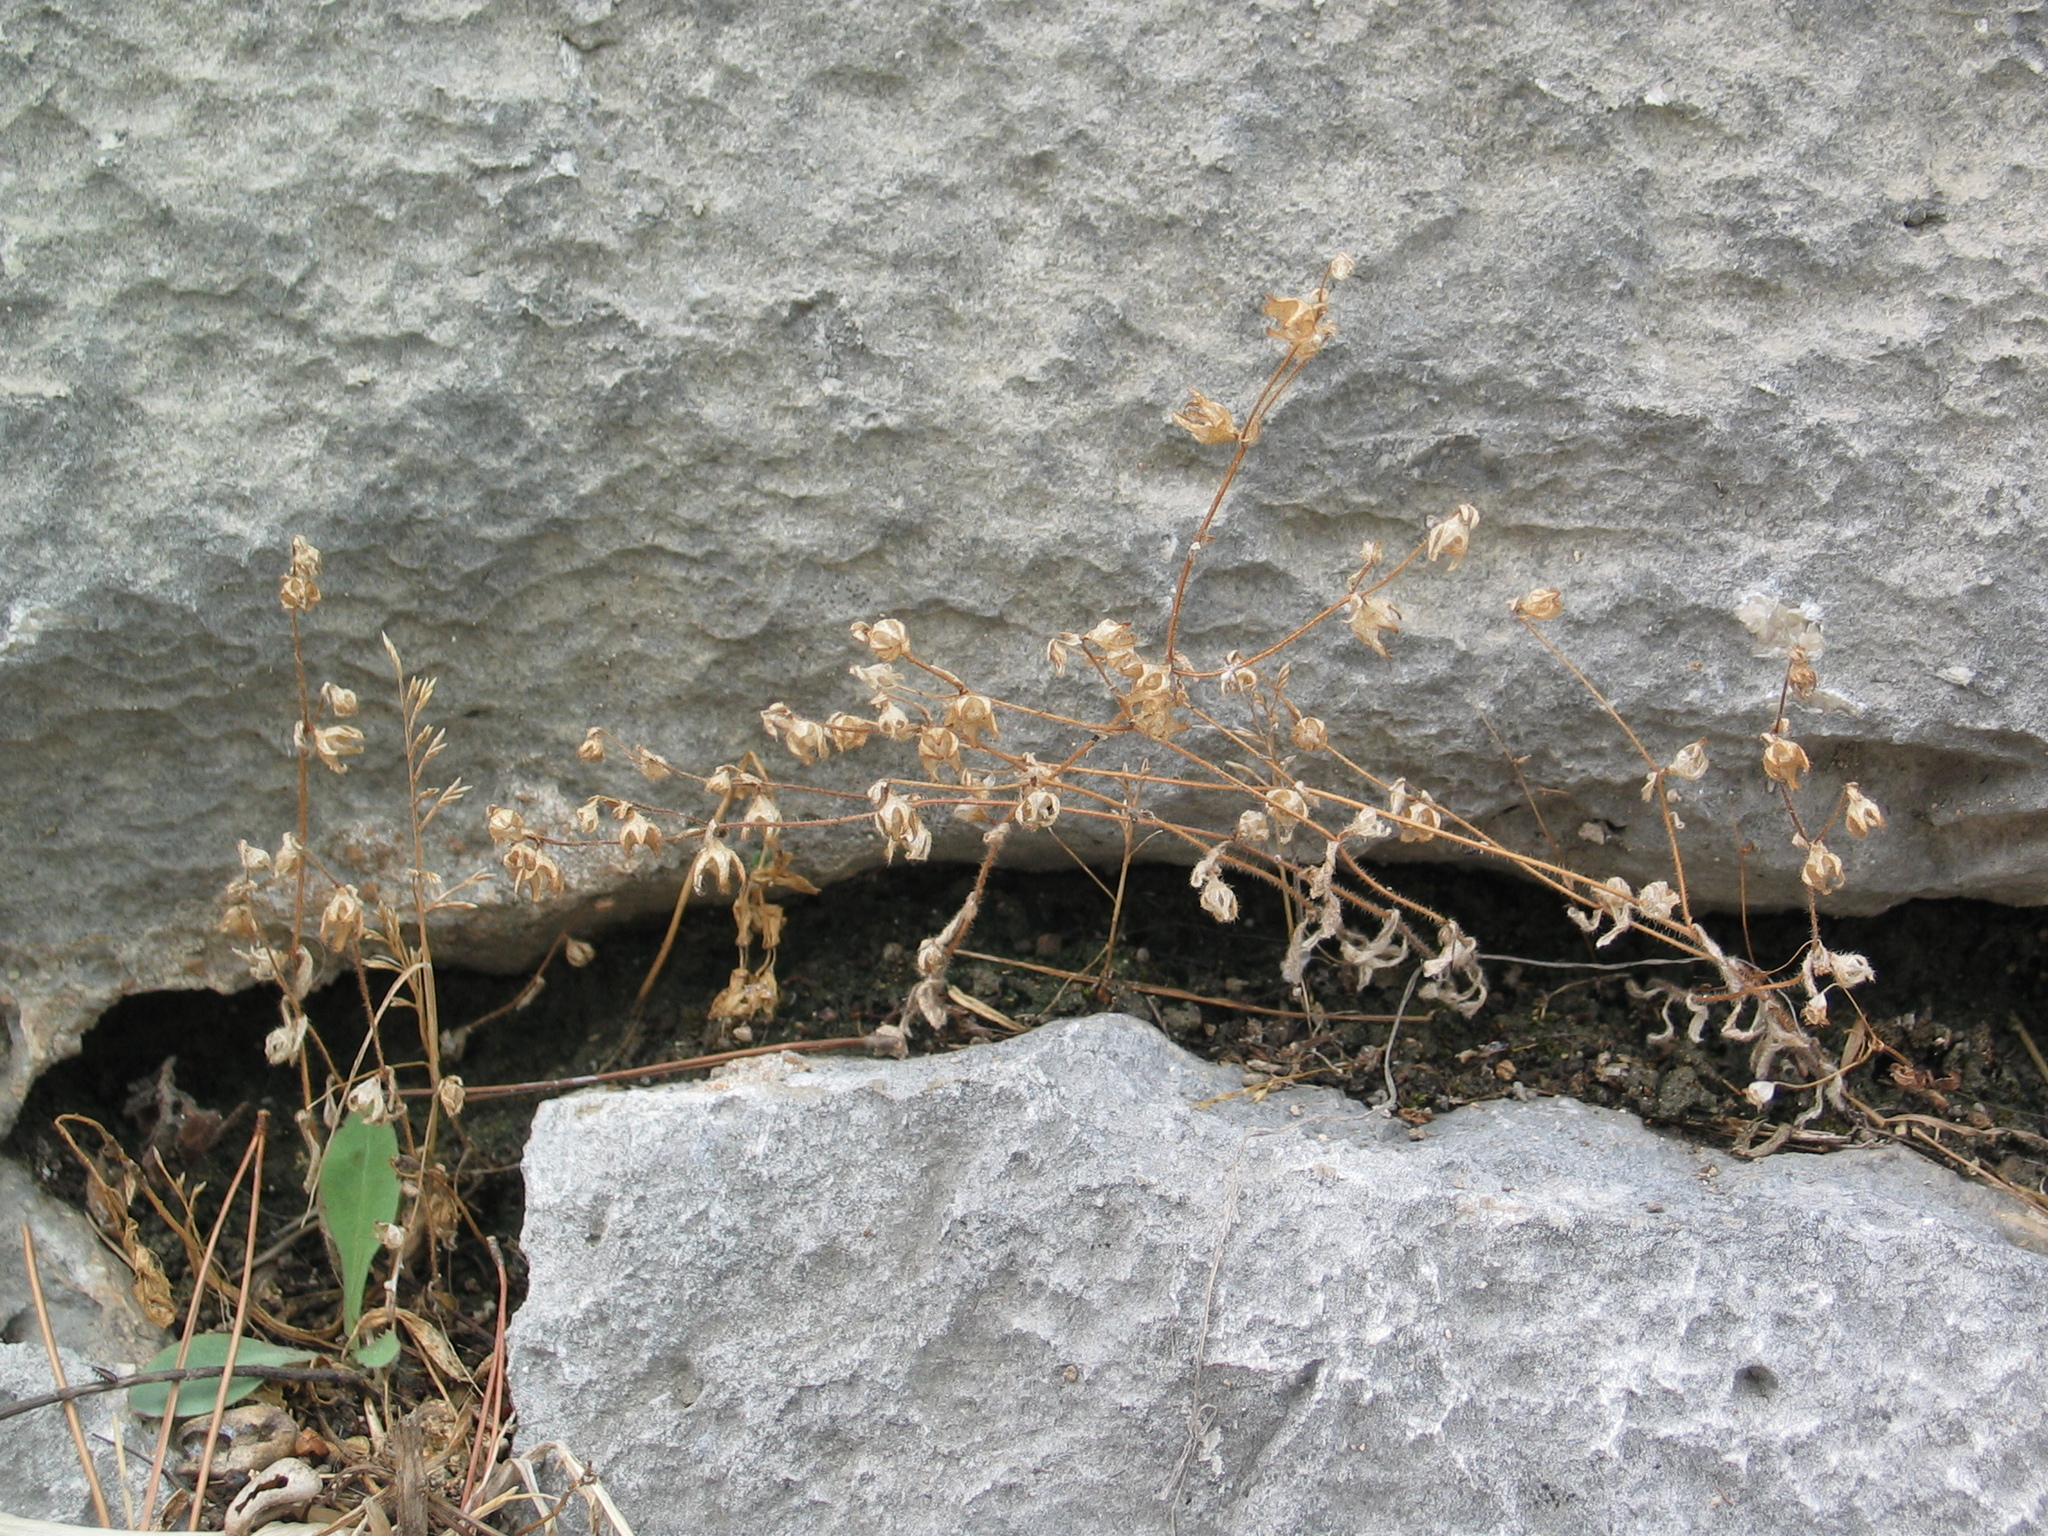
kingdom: Plantae
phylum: Tracheophyta
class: Magnoliopsida
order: Asterales
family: Campanulaceae
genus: Campanula
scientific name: Campanula erinus
